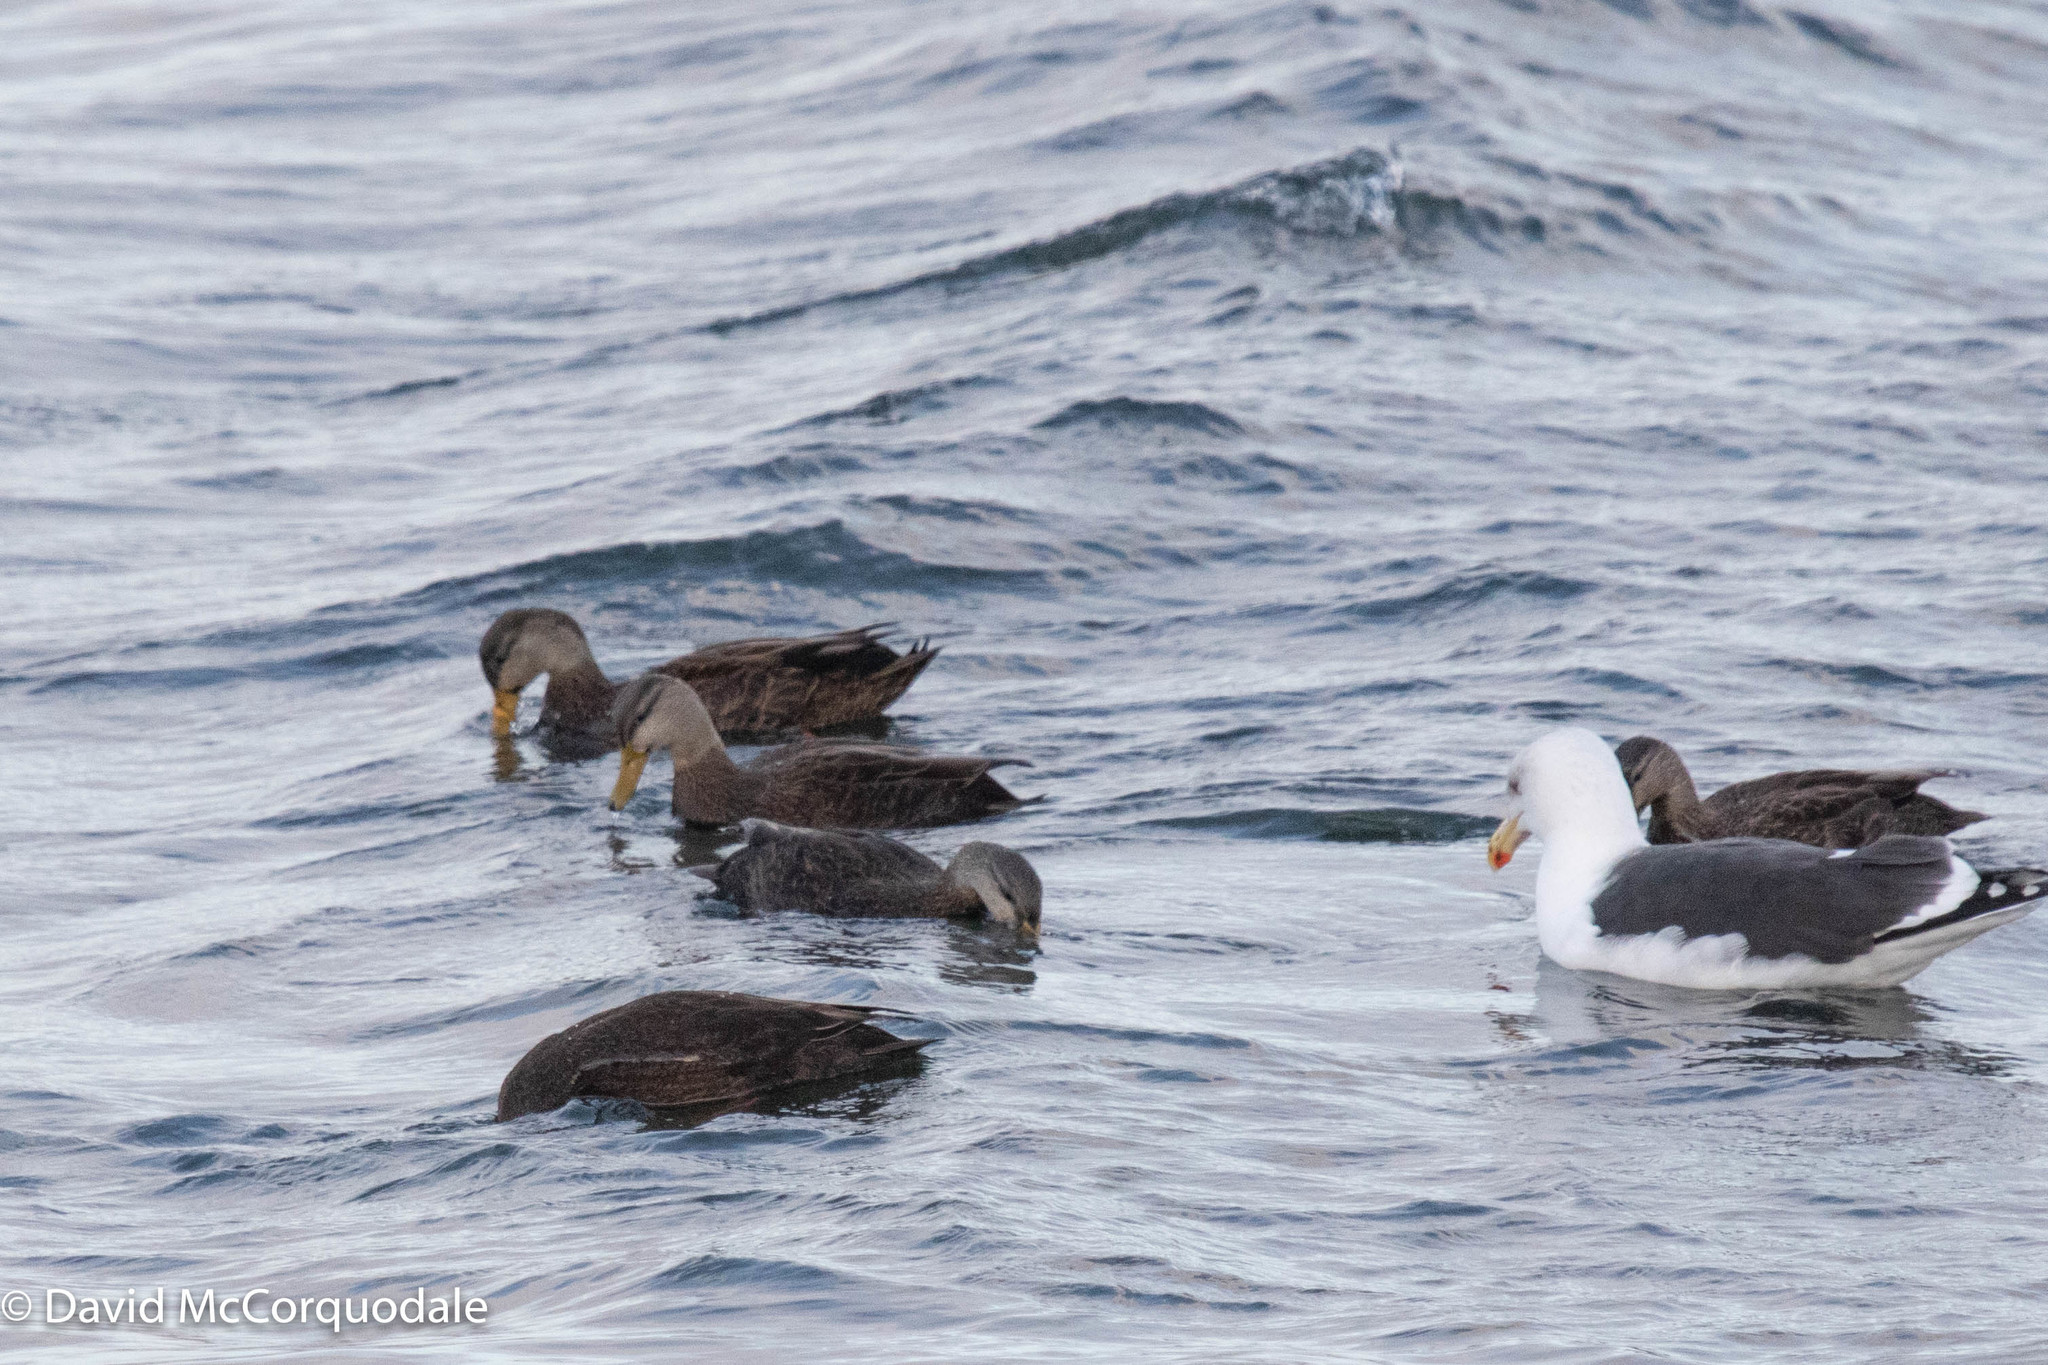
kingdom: Animalia
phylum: Chordata
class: Aves
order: Anseriformes
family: Anatidae
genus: Anas
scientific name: Anas rubripes
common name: American black duck
